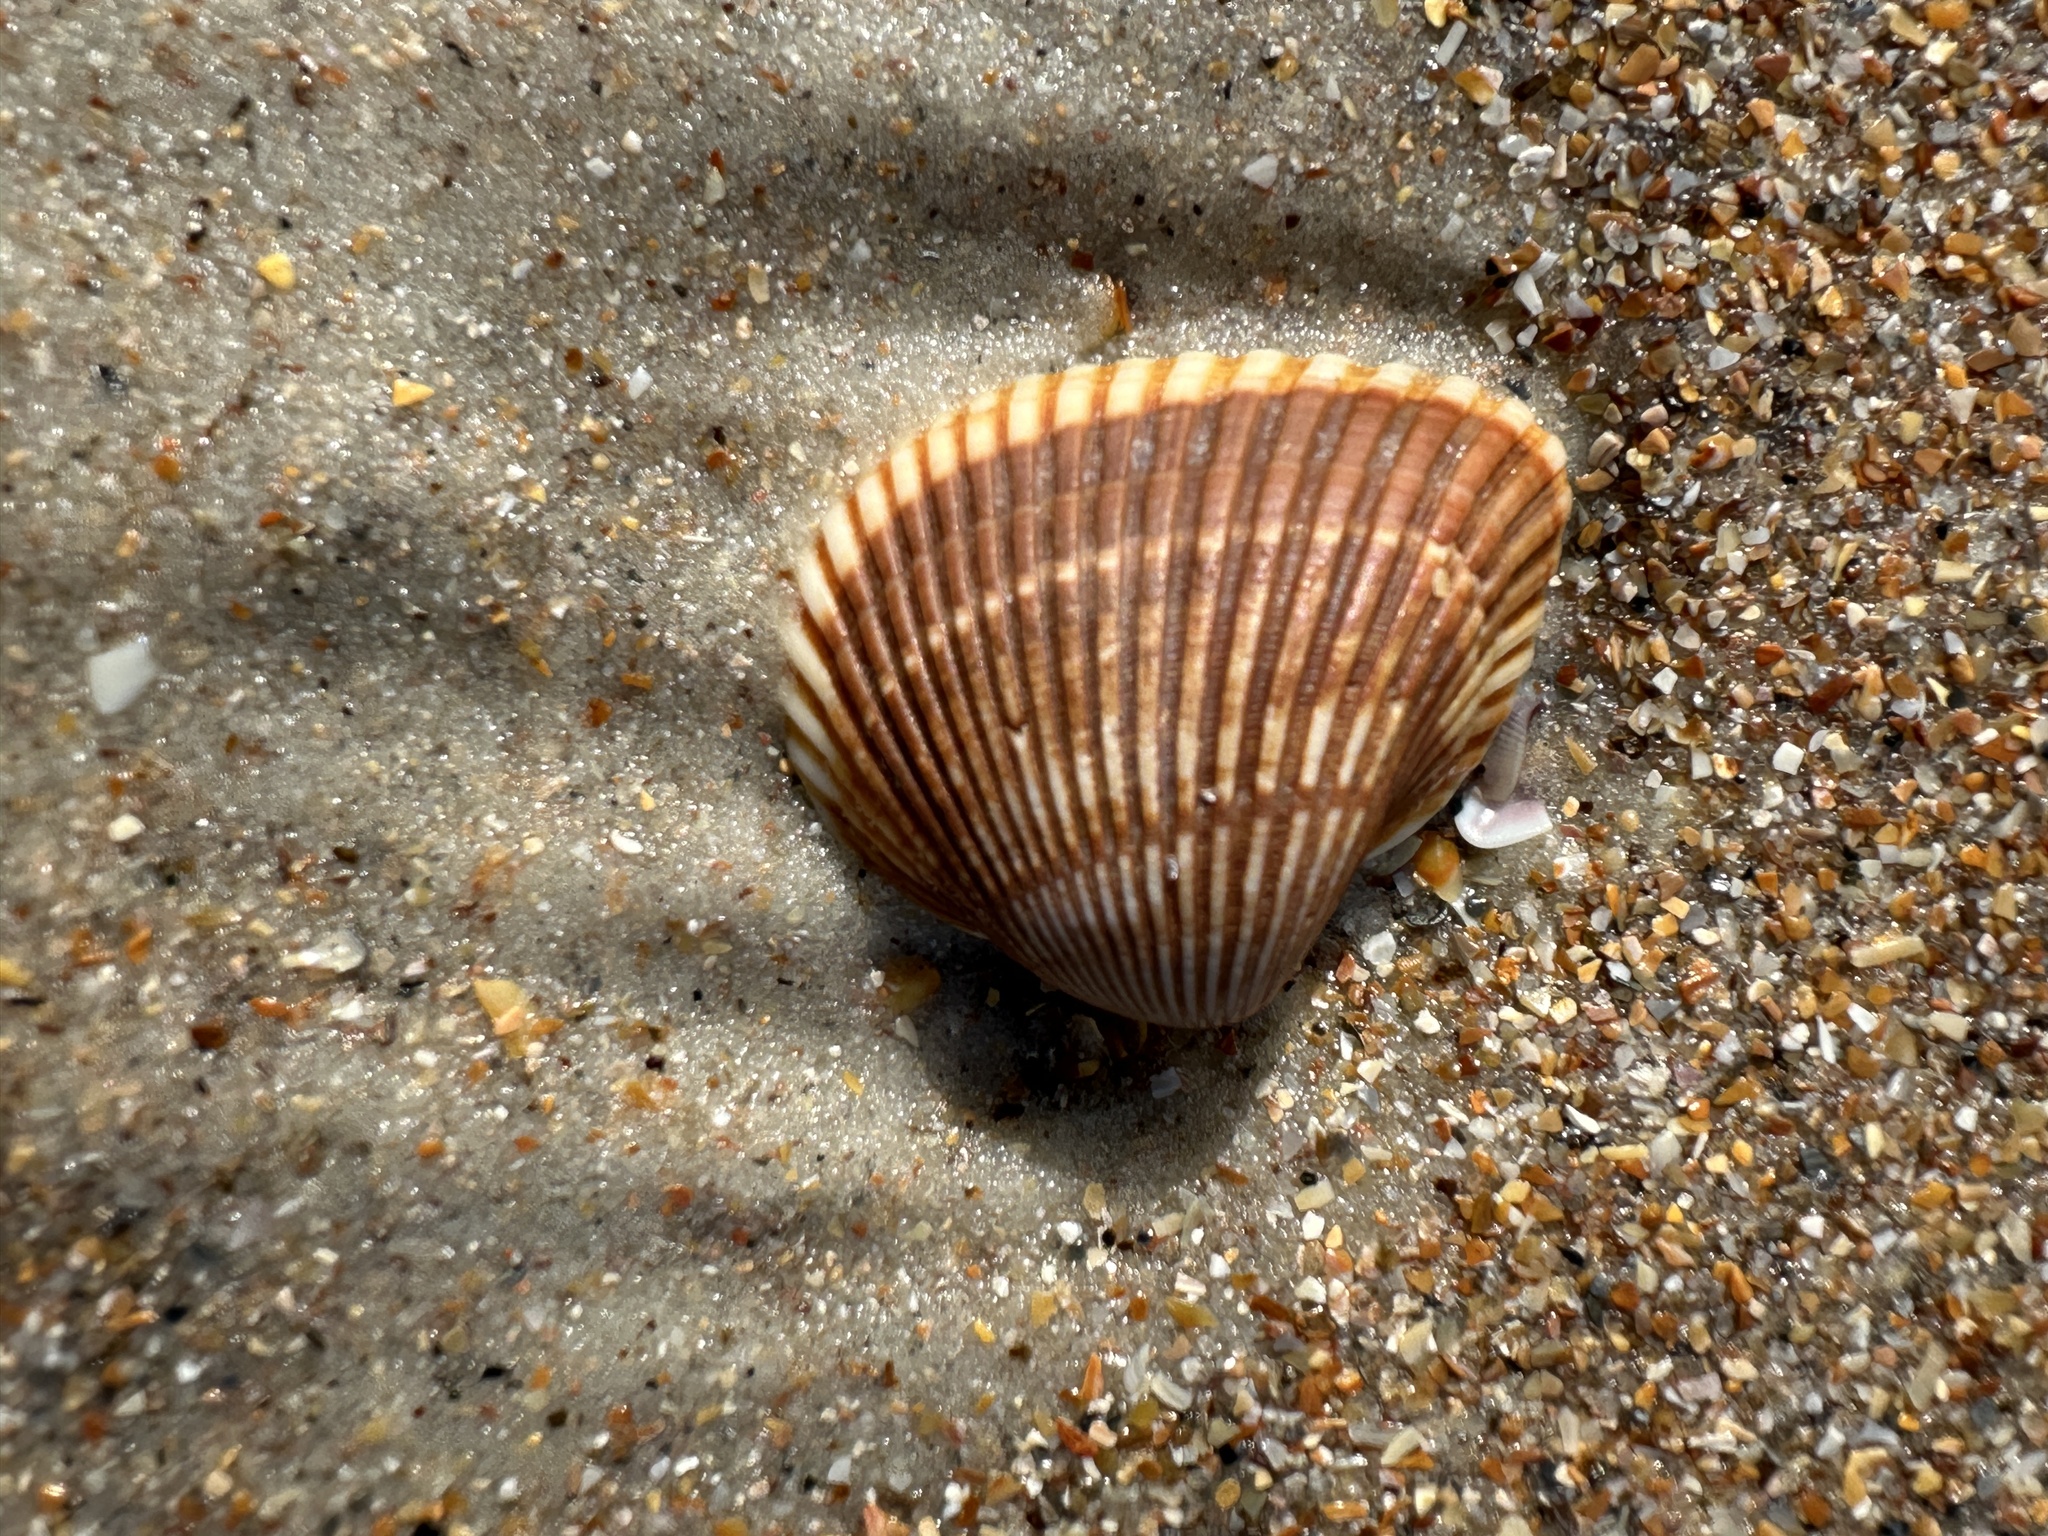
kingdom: Animalia
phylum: Mollusca
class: Bivalvia
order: Arcida
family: Noetiidae
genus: Noetia
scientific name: Noetia ponderosa
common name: Ponderous ark
